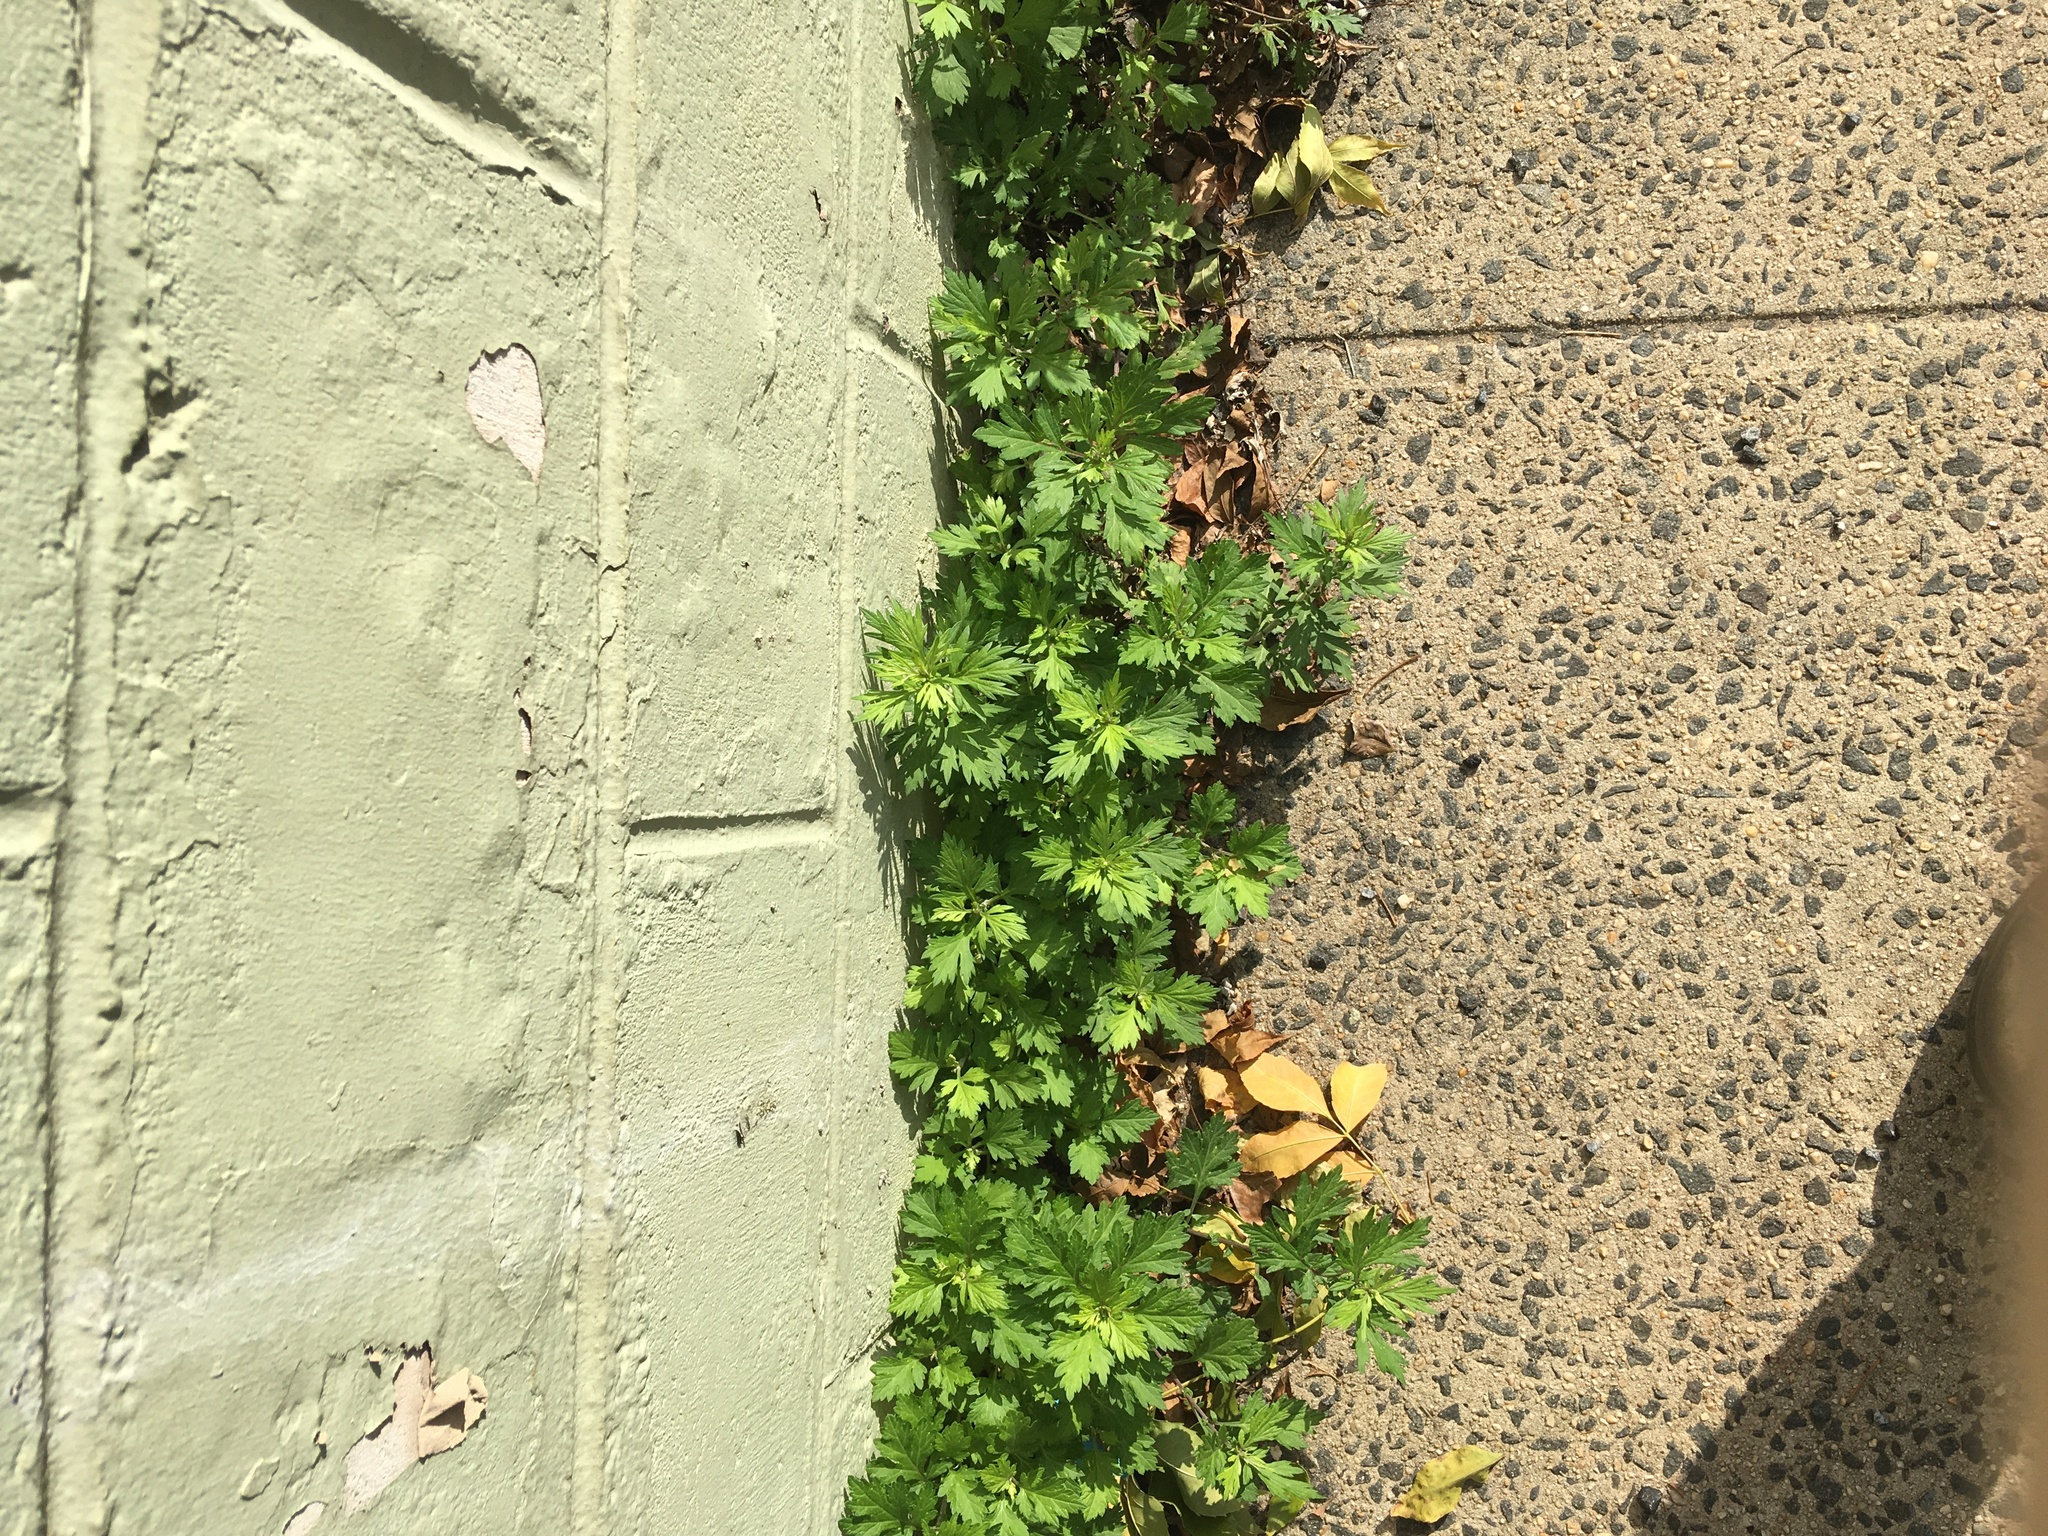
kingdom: Plantae
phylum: Tracheophyta
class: Magnoliopsida
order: Asterales
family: Asteraceae
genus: Artemisia
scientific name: Artemisia vulgaris
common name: Mugwort
